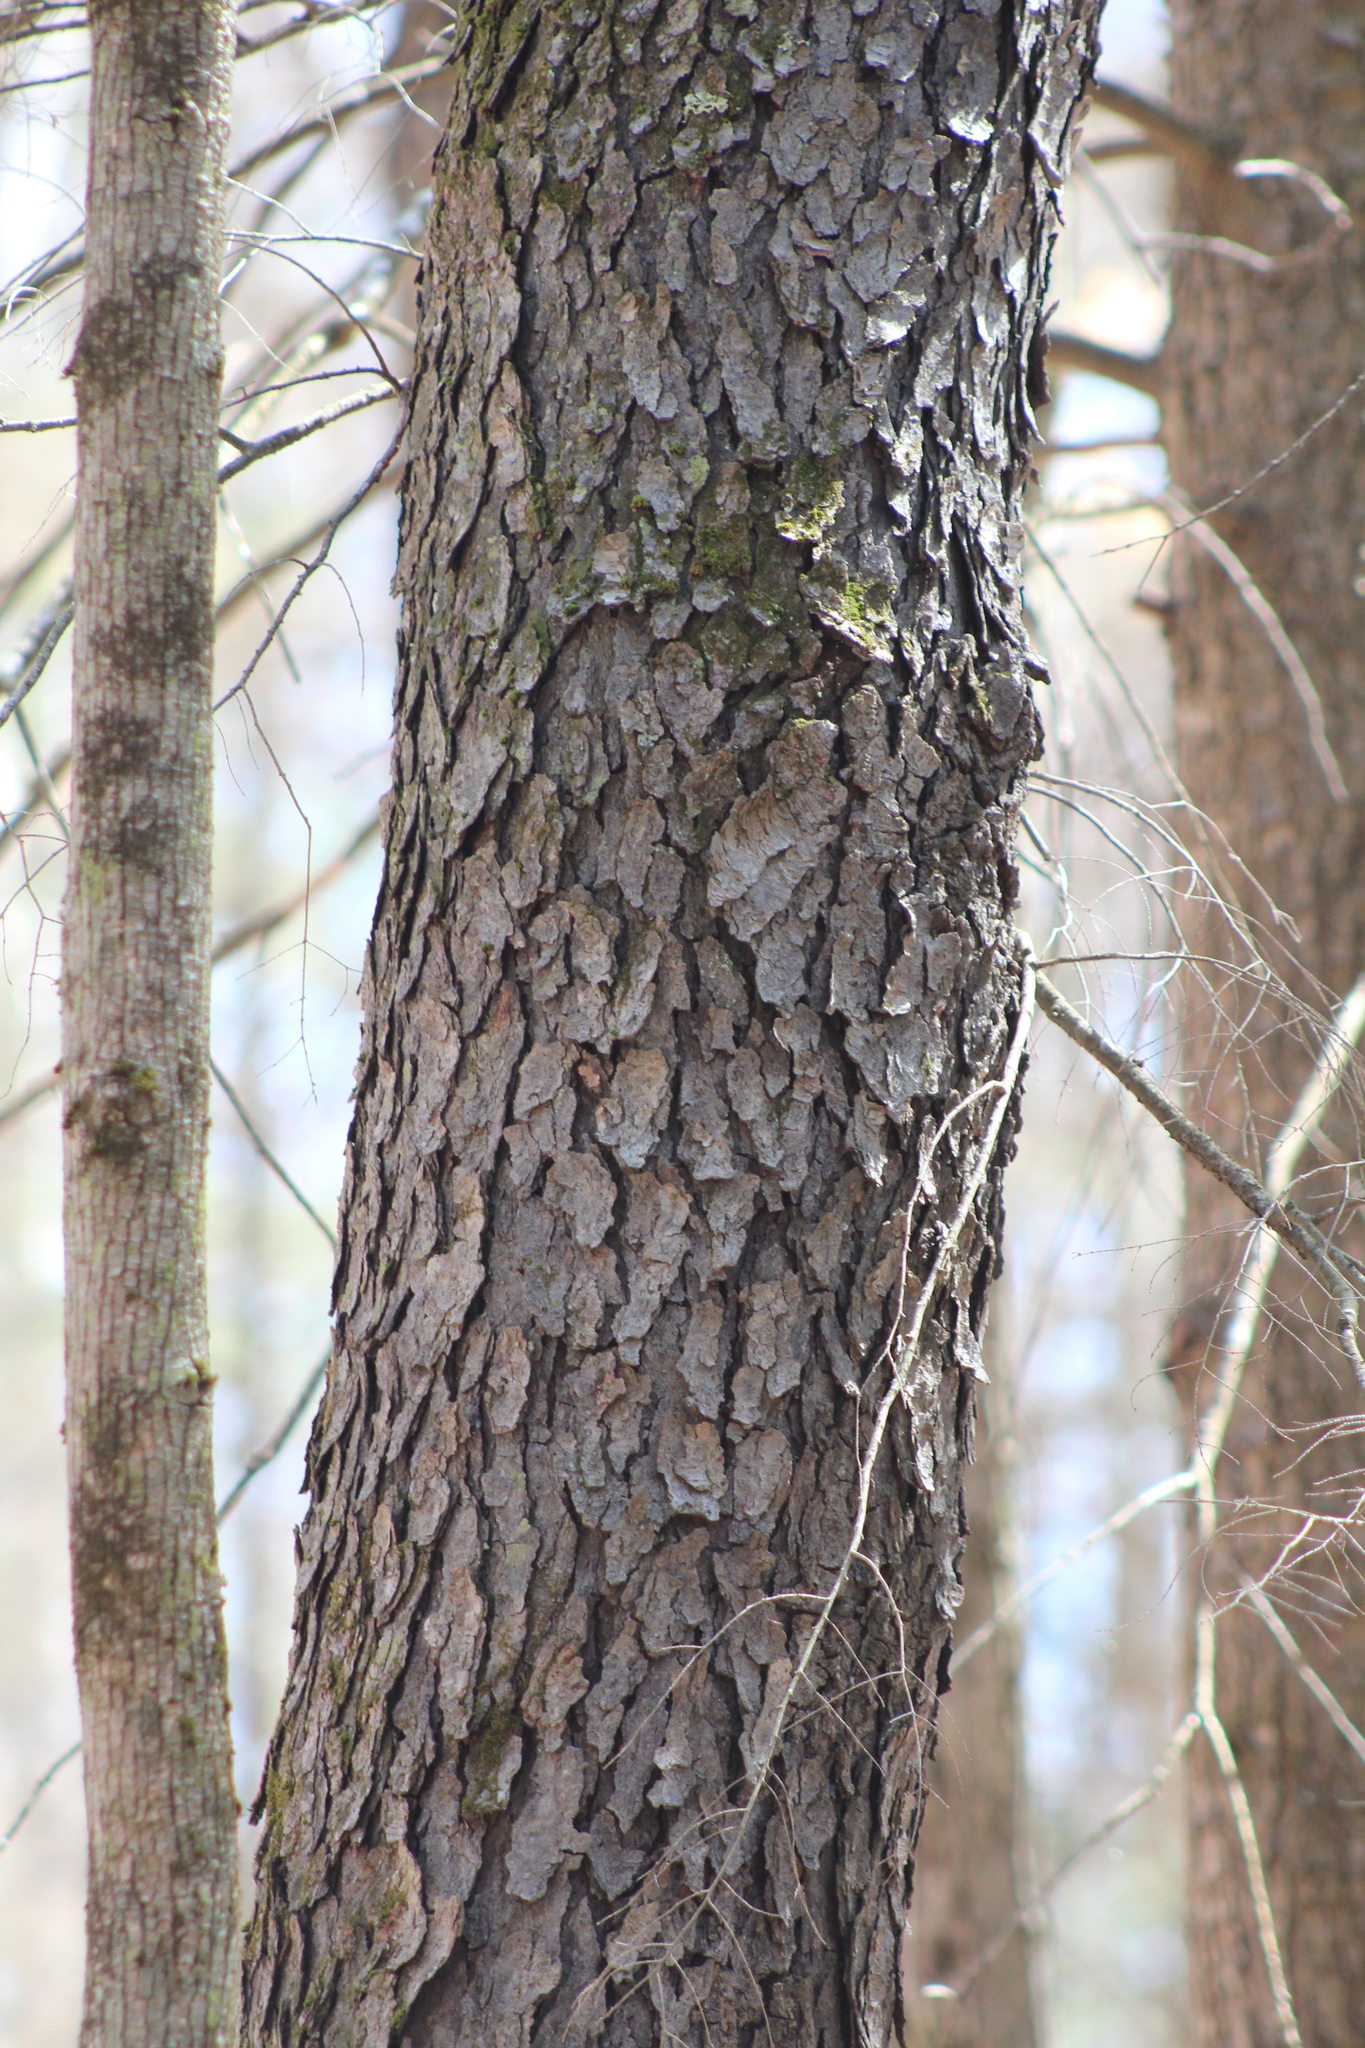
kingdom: Plantae
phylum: Tracheophyta
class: Magnoliopsida
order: Rosales
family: Rosaceae
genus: Prunus
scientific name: Prunus serotina
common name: Black cherry
